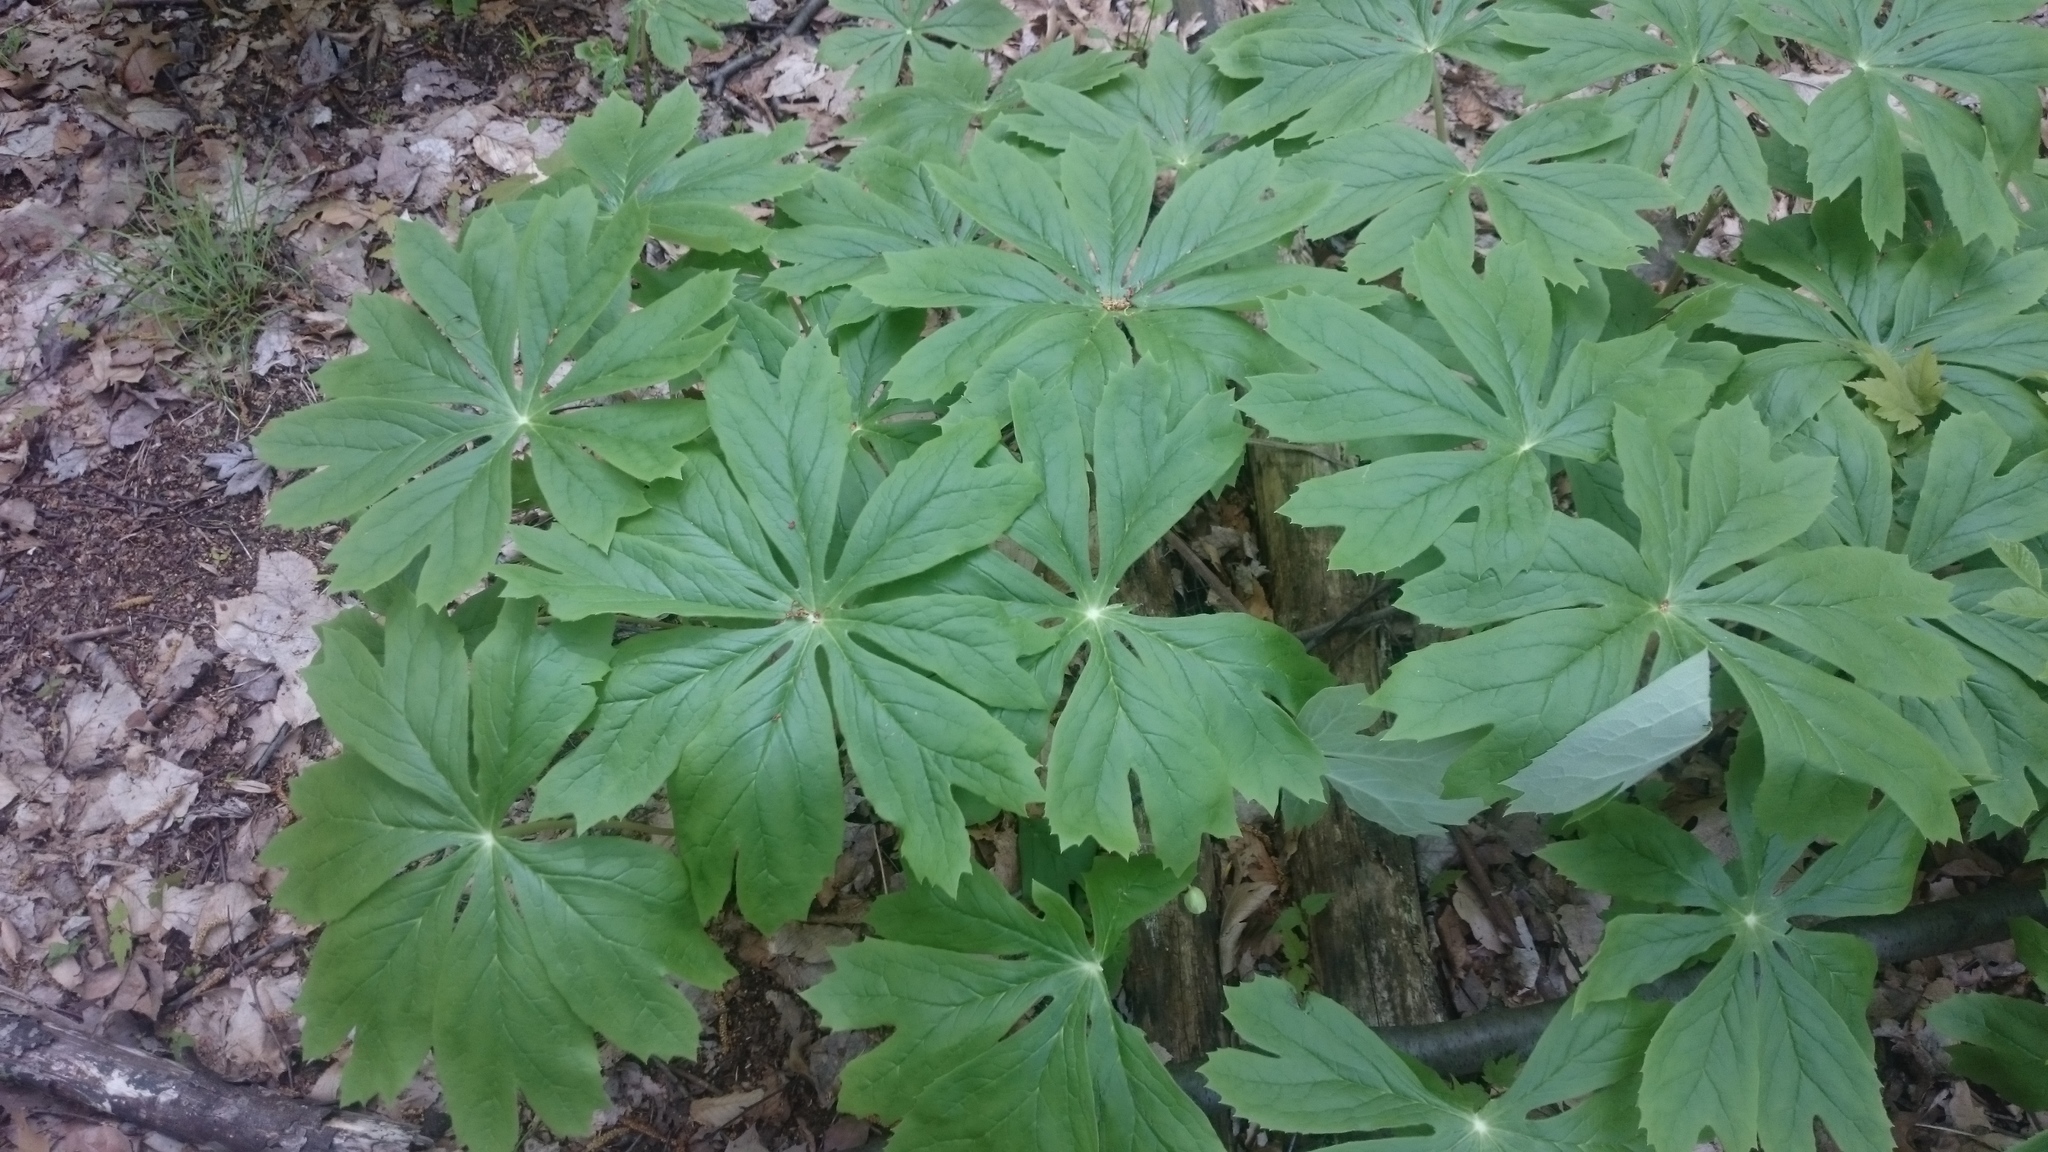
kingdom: Plantae
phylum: Tracheophyta
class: Magnoliopsida
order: Ranunculales
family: Berberidaceae
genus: Podophyllum
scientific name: Podophyllum peltatum
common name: Wild mandrake
